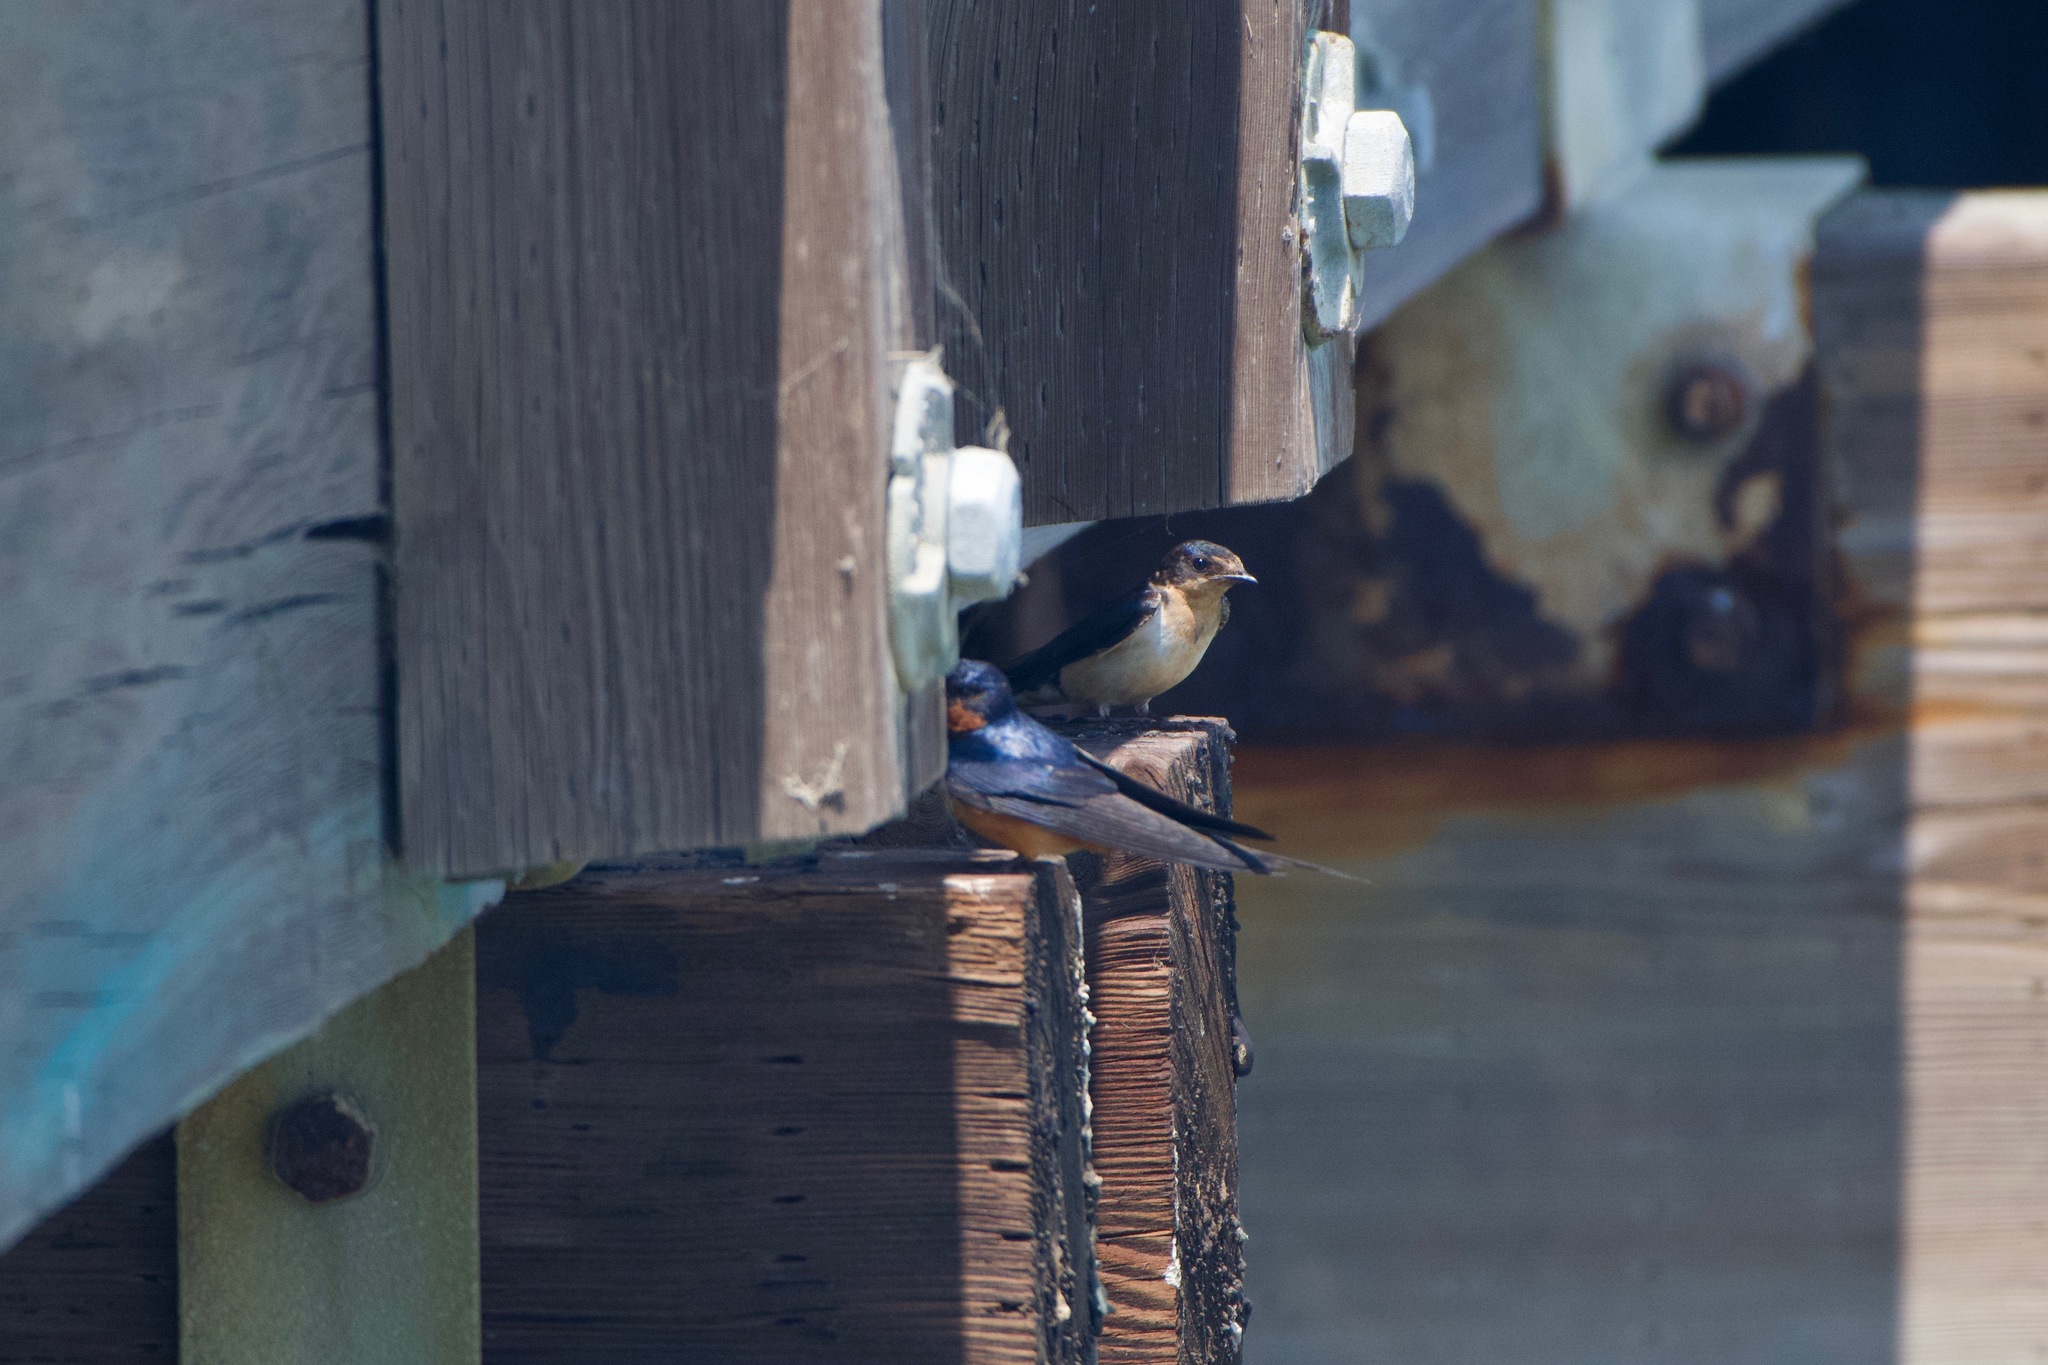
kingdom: Animalia
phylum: Chordata
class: Aves
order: Passeriformes
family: Hirundinidae
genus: Hirundo
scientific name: Hirundo rustica
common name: Barn swallow
